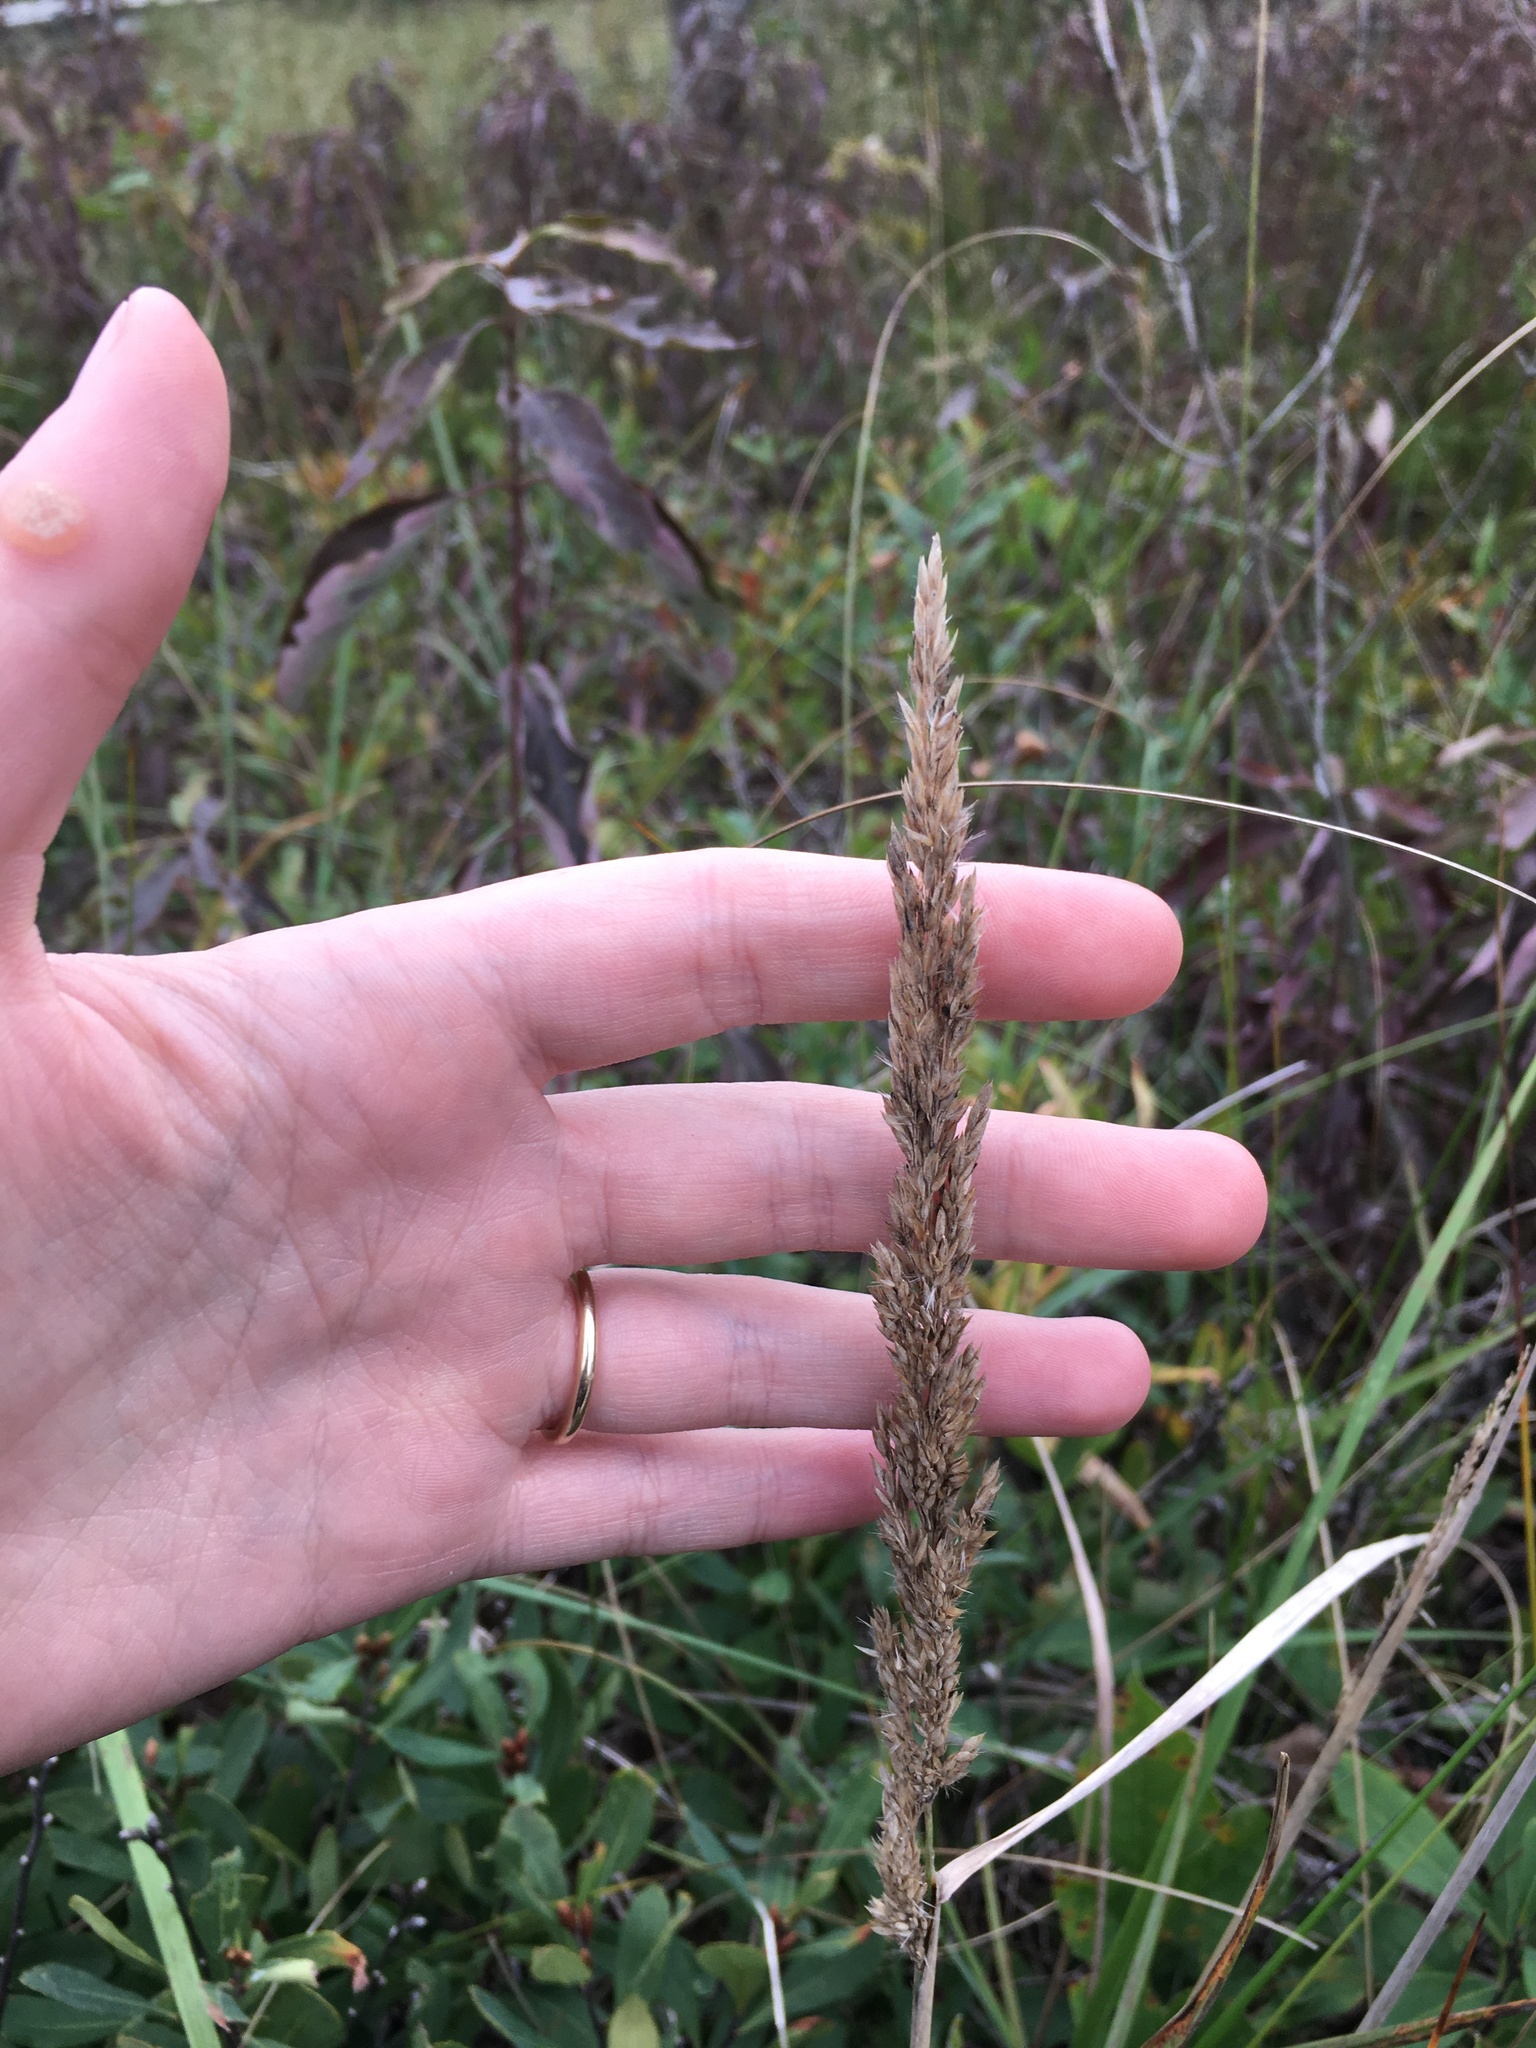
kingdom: Plantae
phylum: Tracheophyta
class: Liliopsida
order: Poales
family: Poaceae
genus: Calamagrostis
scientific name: Calamagrostis inexpansa
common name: Northern reedgrass
